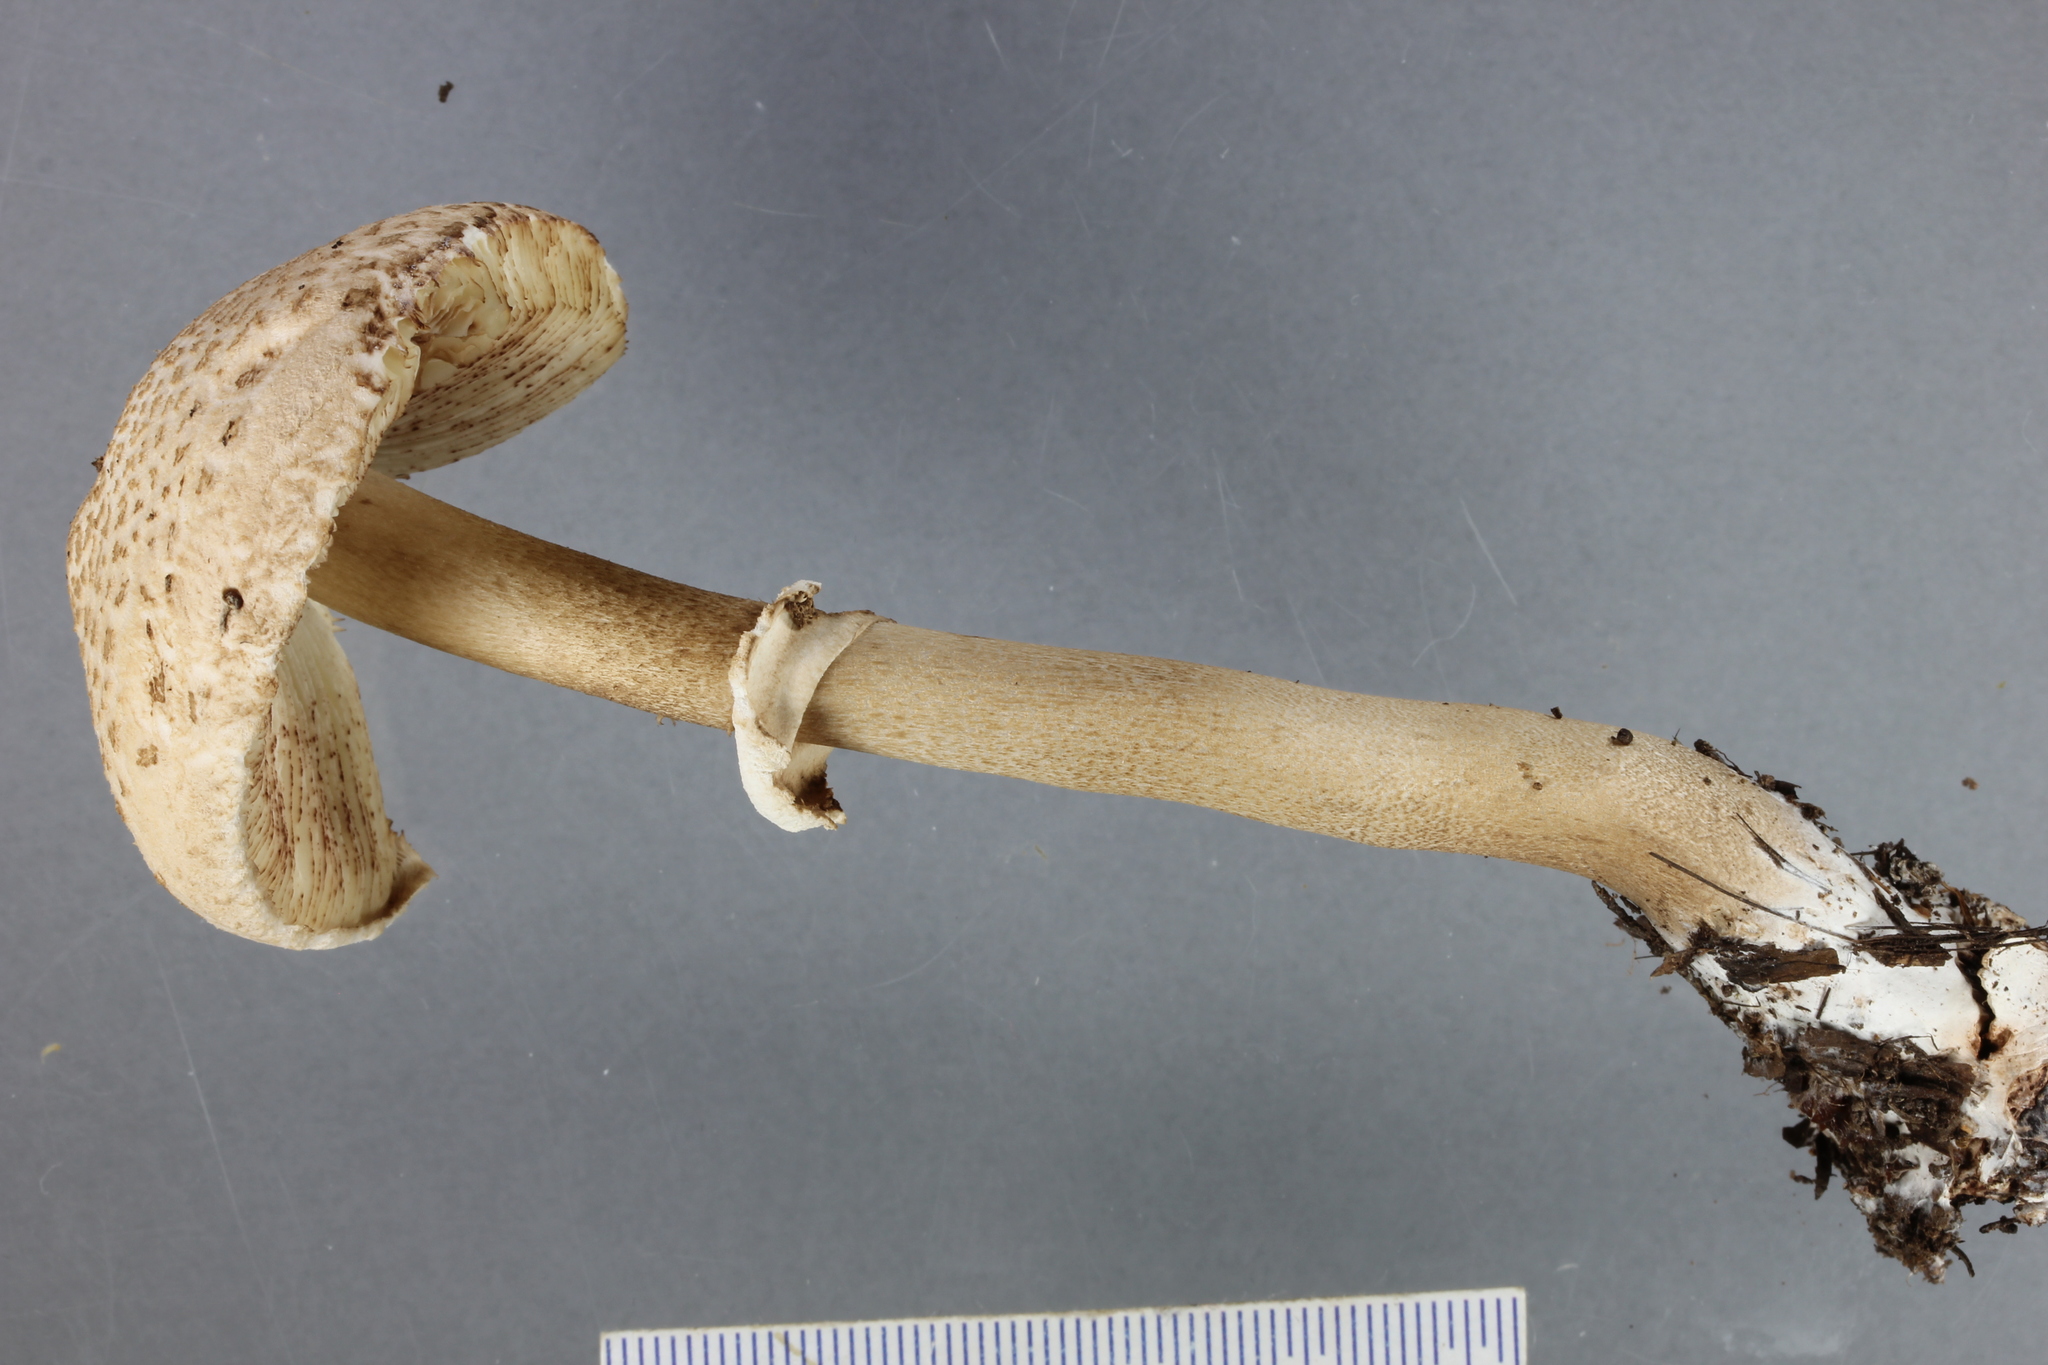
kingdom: Fungi
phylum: Basidiomycota
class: Agaricomycetes
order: Agaricales
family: Agaricaceae
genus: Macrolepiota
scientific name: Macrolepiota clelandii
